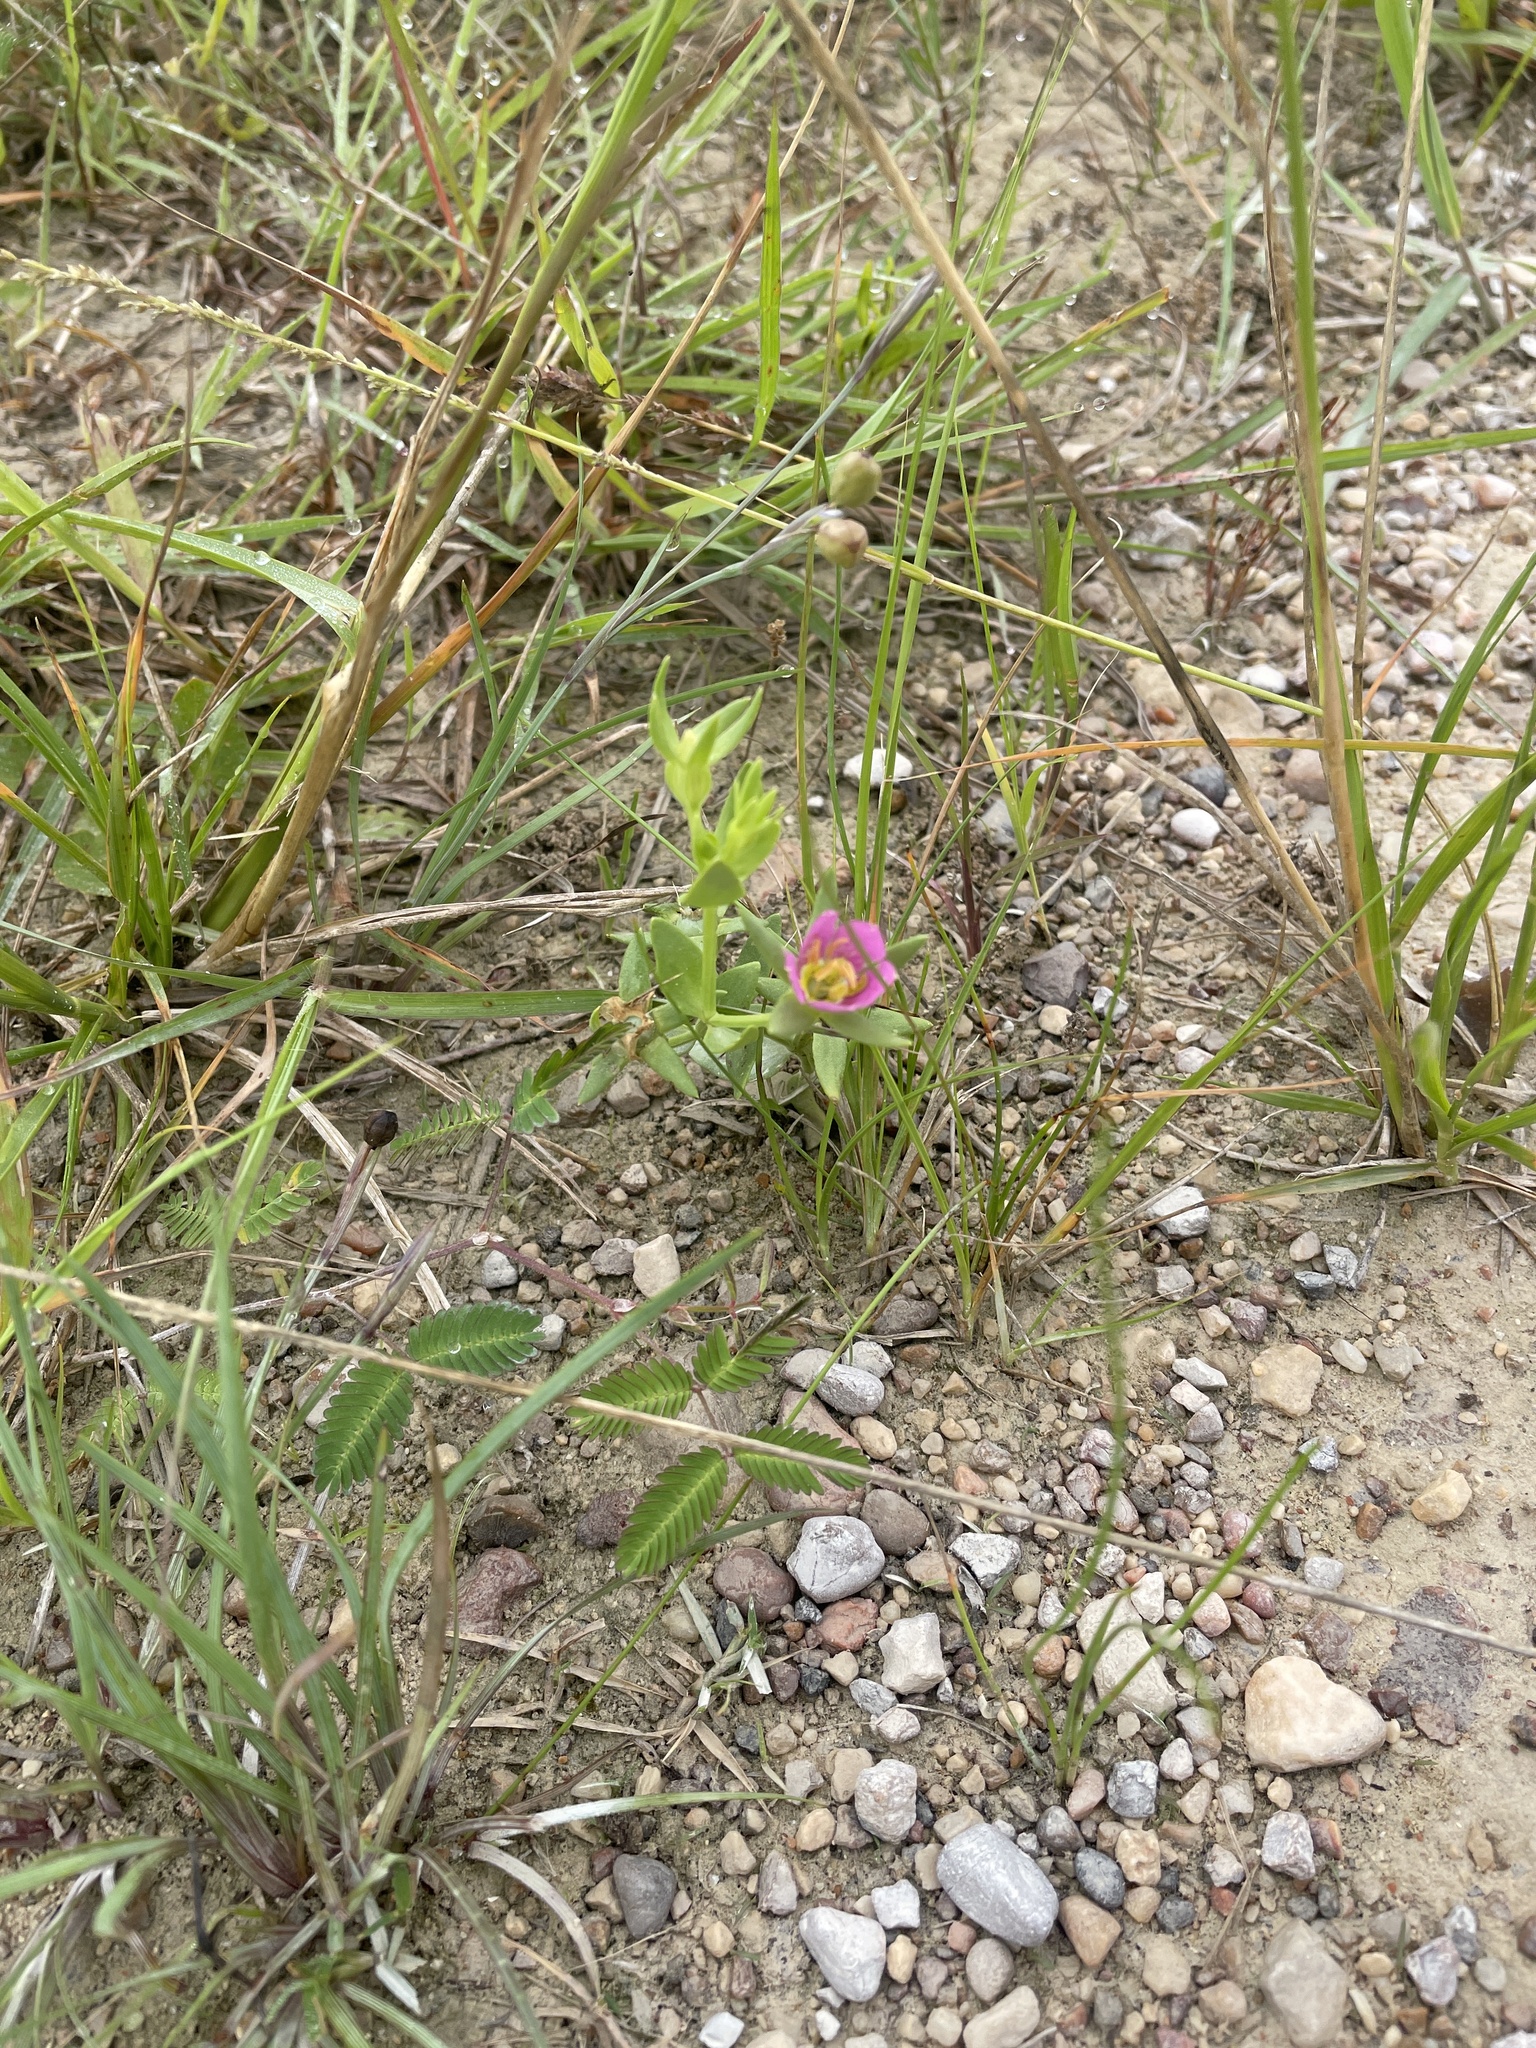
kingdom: Plantae
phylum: Tracheophyta
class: Magnoliopsida
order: Gentianales
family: Gentianaceae
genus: Sabatia
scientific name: Sabatia arenicola
